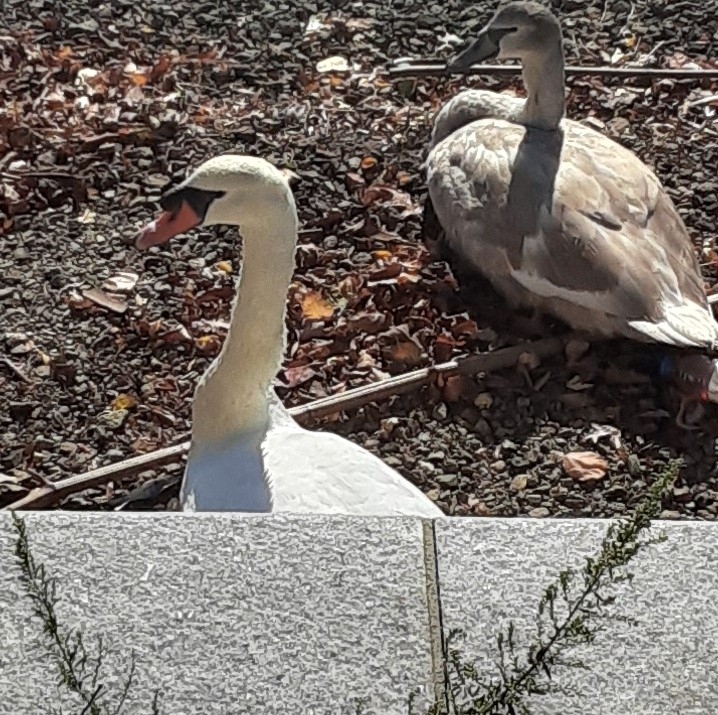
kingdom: Animalia
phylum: Chordata
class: Aves
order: Anseriformes
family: Anatidae
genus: Cygnus
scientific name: Cygnus olor
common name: Mute swan
